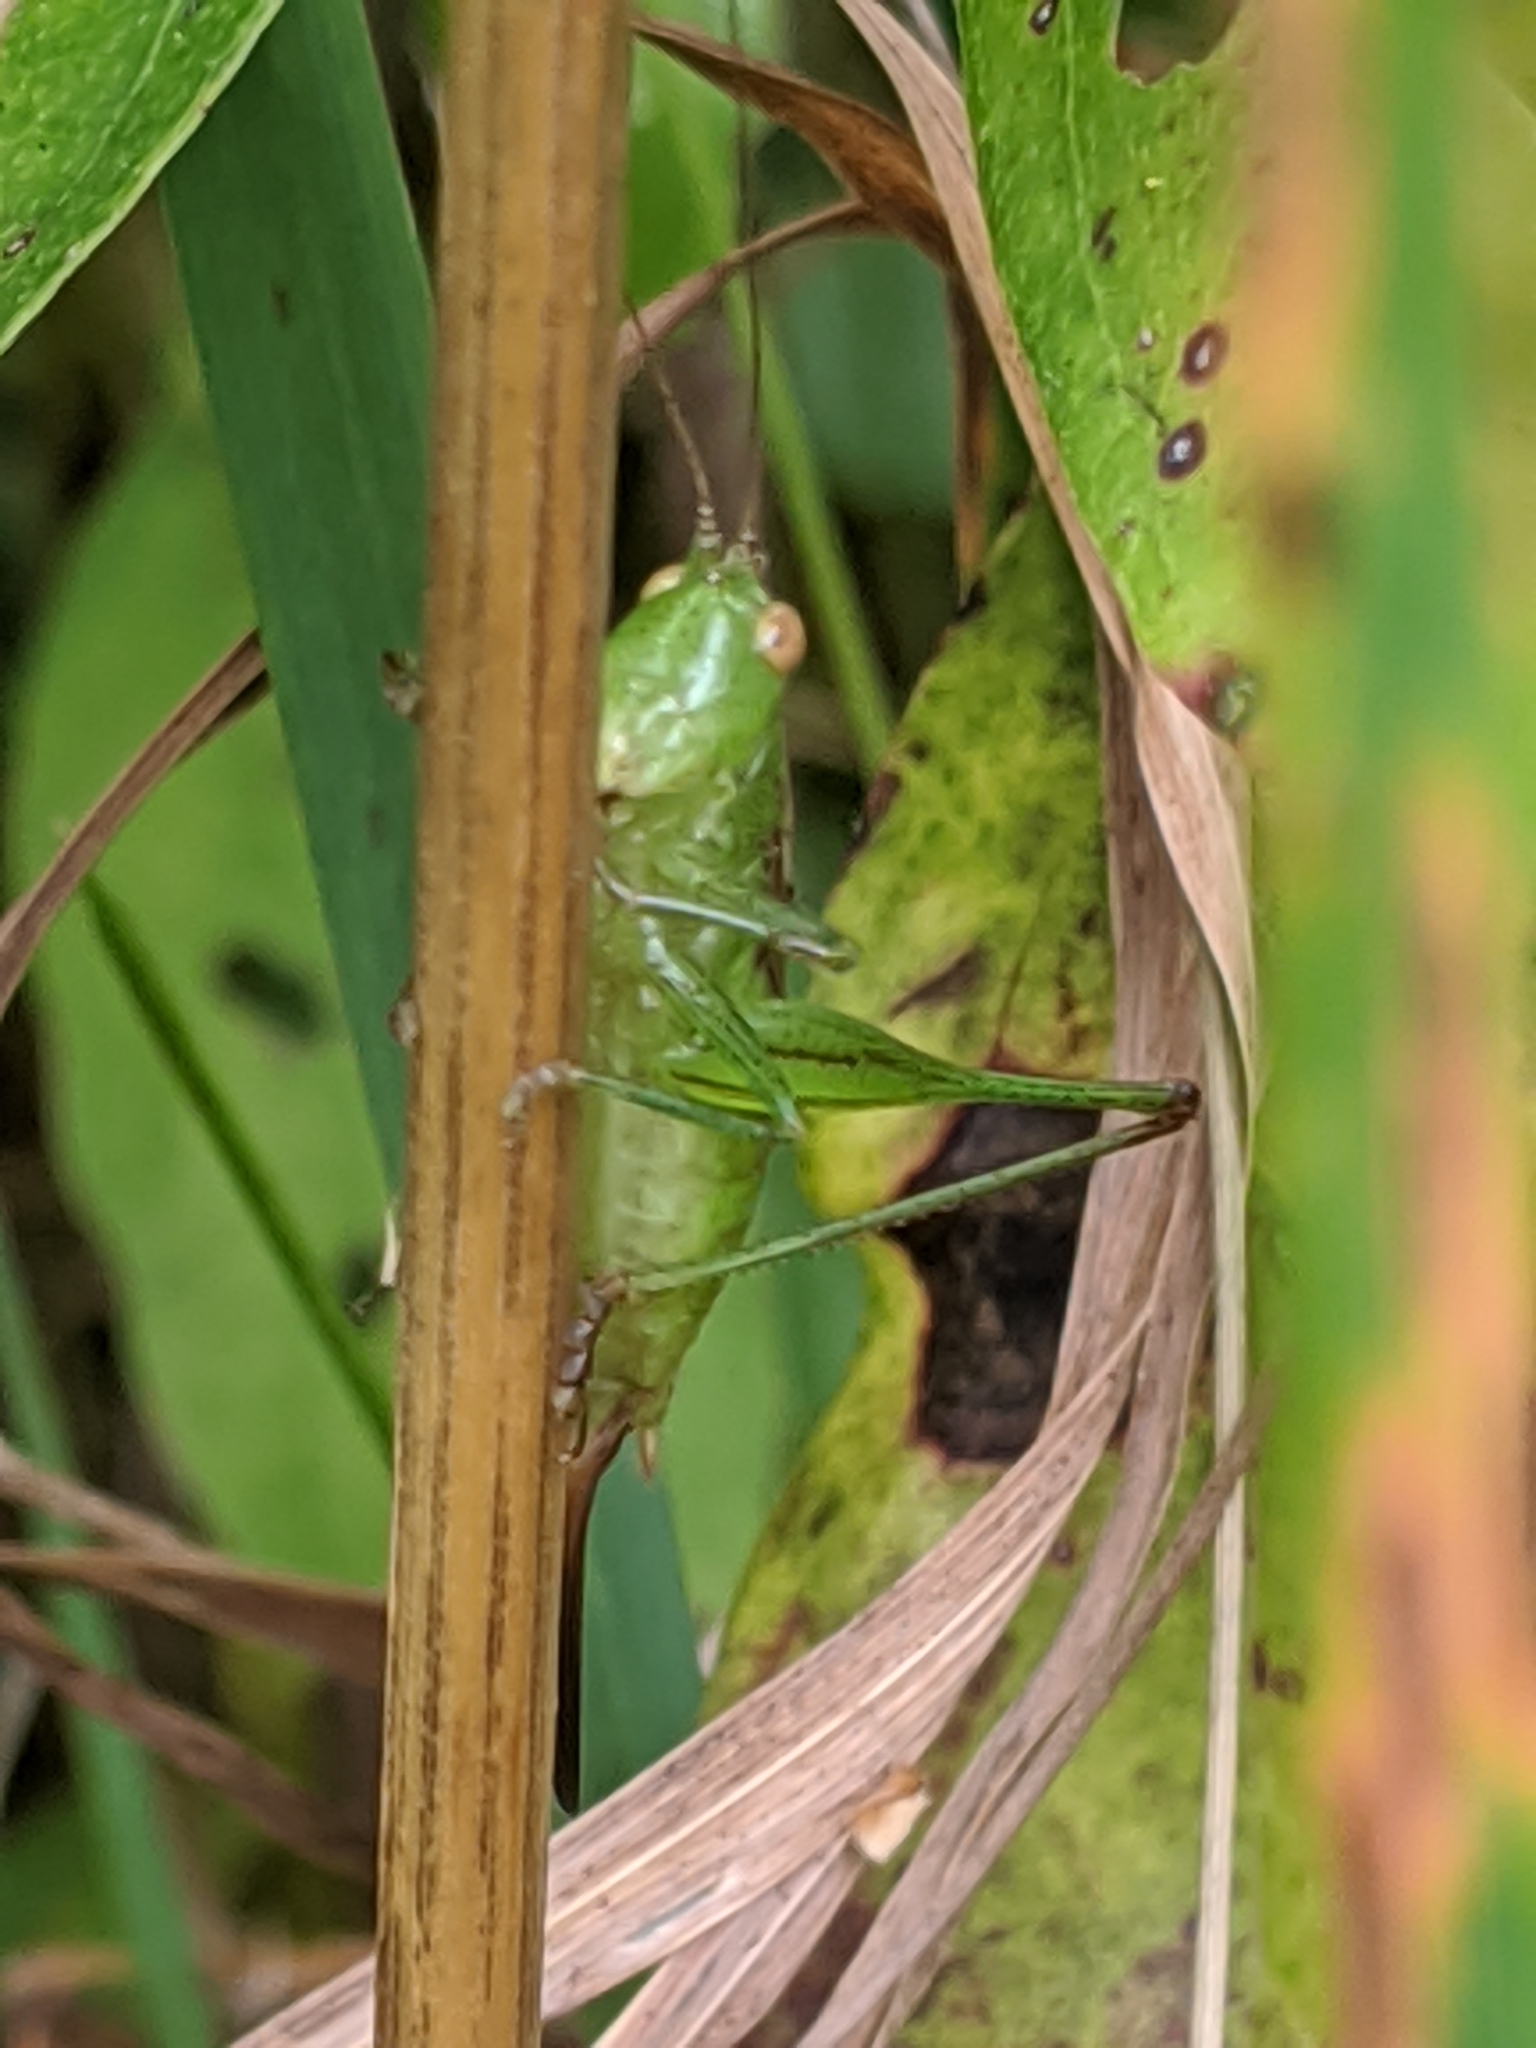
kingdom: Animalia
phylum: Arthropoda
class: Insecta
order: Orthoptera
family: Tettigoniidae
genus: Conocephalus
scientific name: Conocephalus brevipennis
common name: Short-winged meadow katydid
